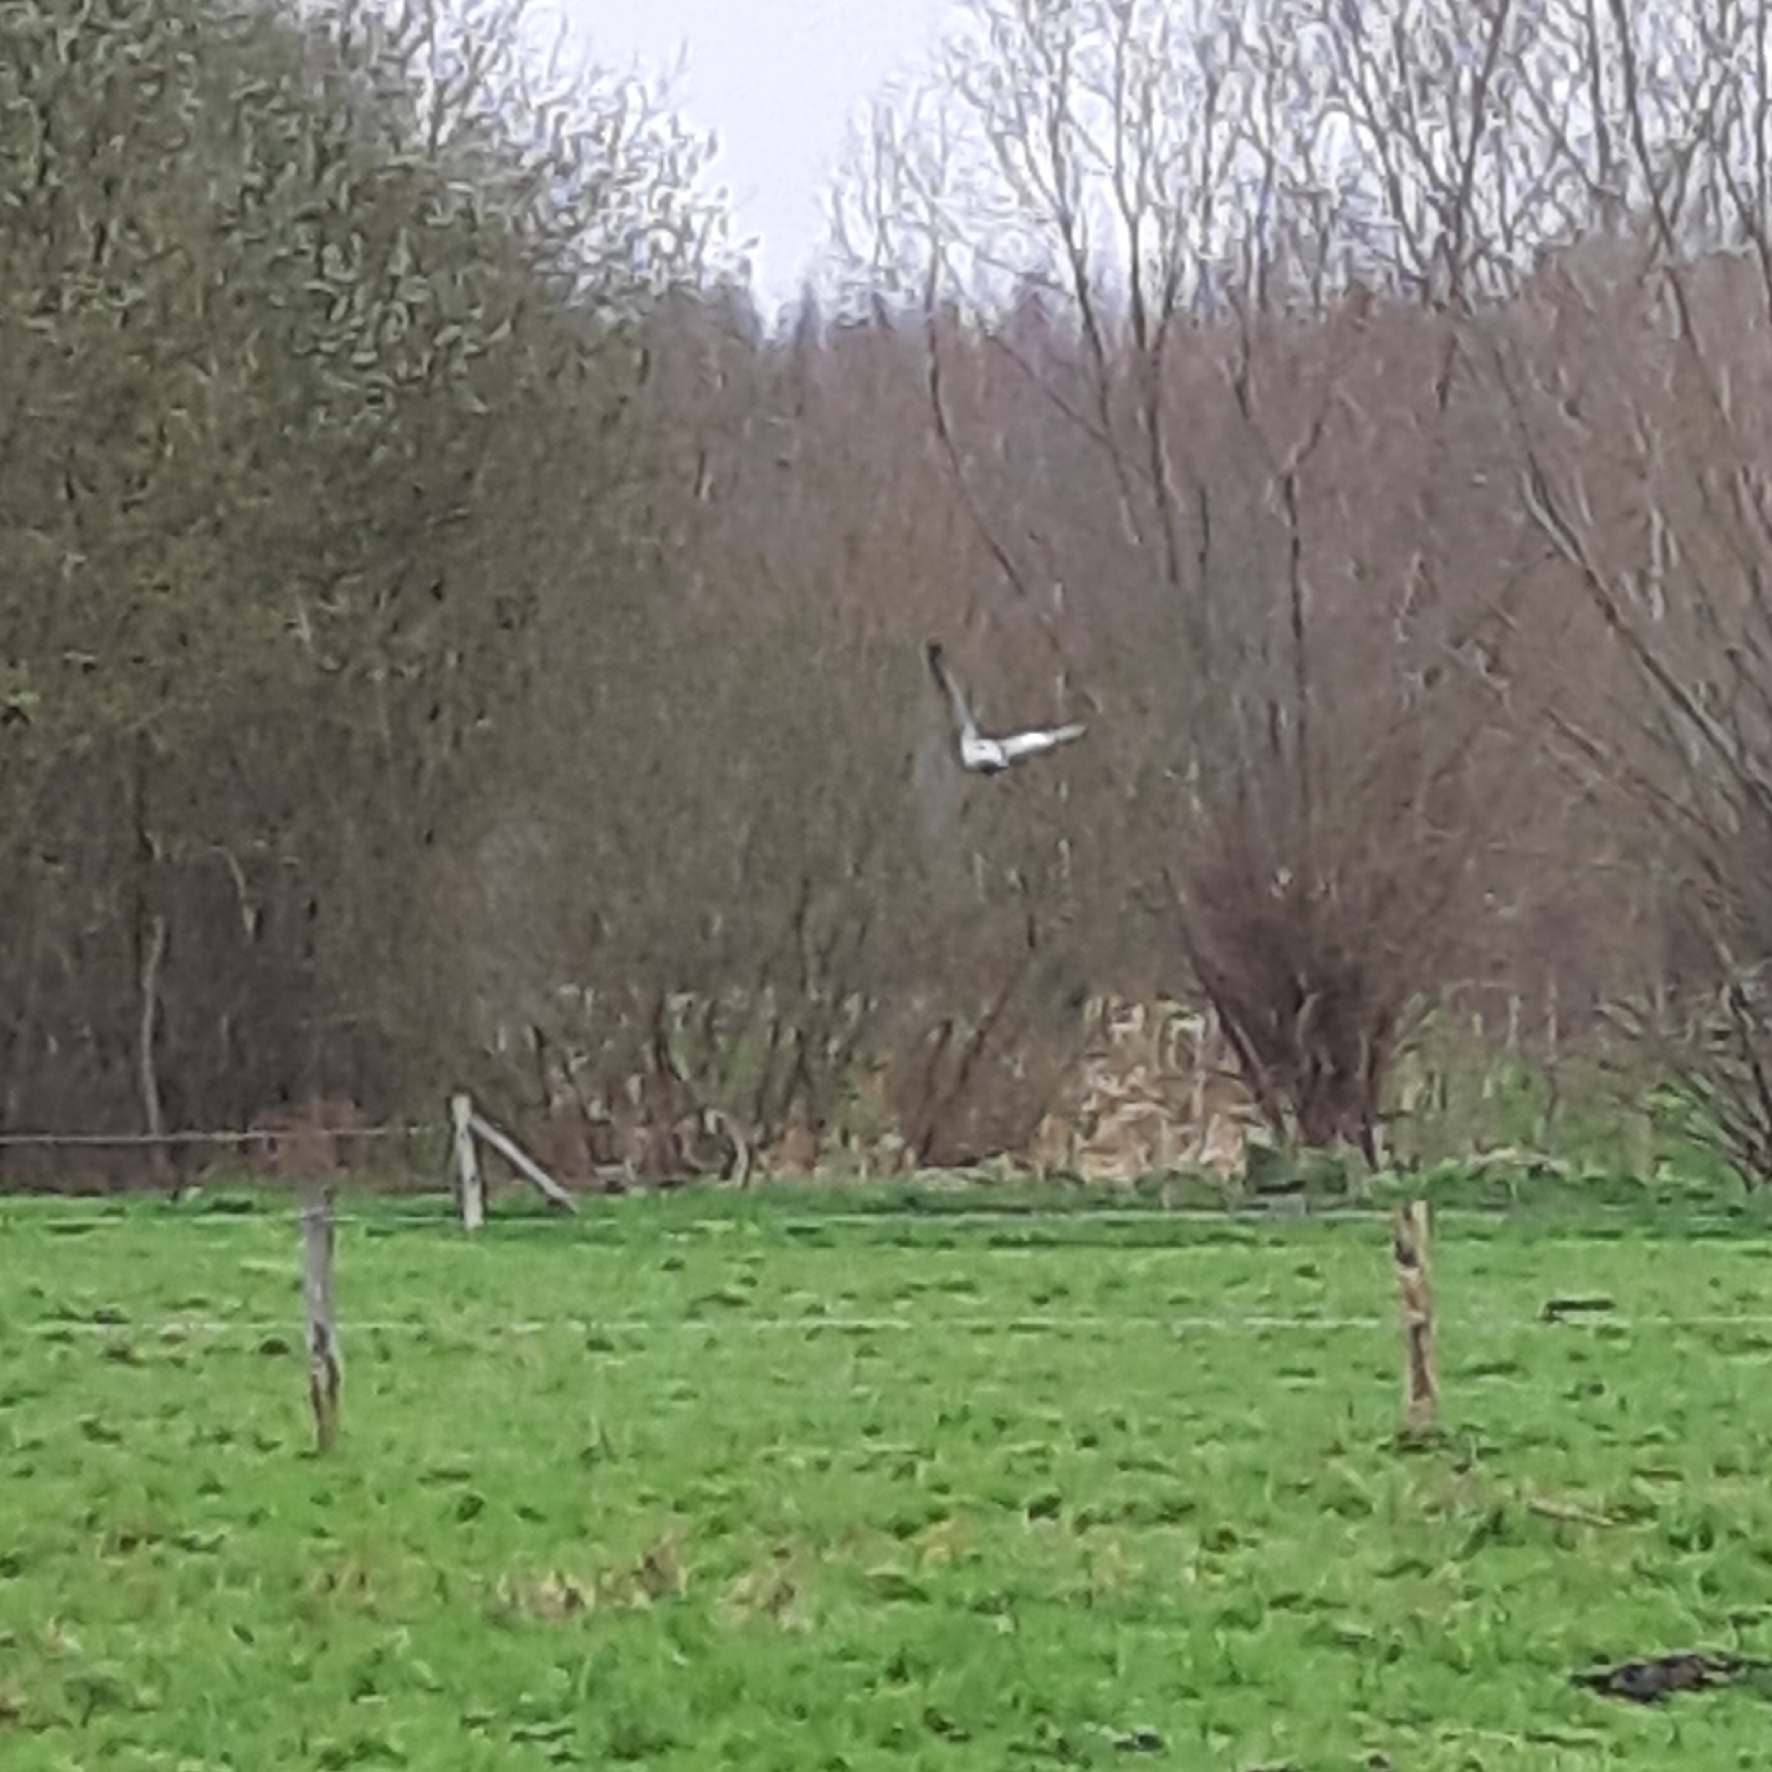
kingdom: Animalia
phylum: Chordata
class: Aves
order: Columbiformes
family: Columbidae
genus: Columba
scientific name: Columba palumbus
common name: Common wood pigeon
